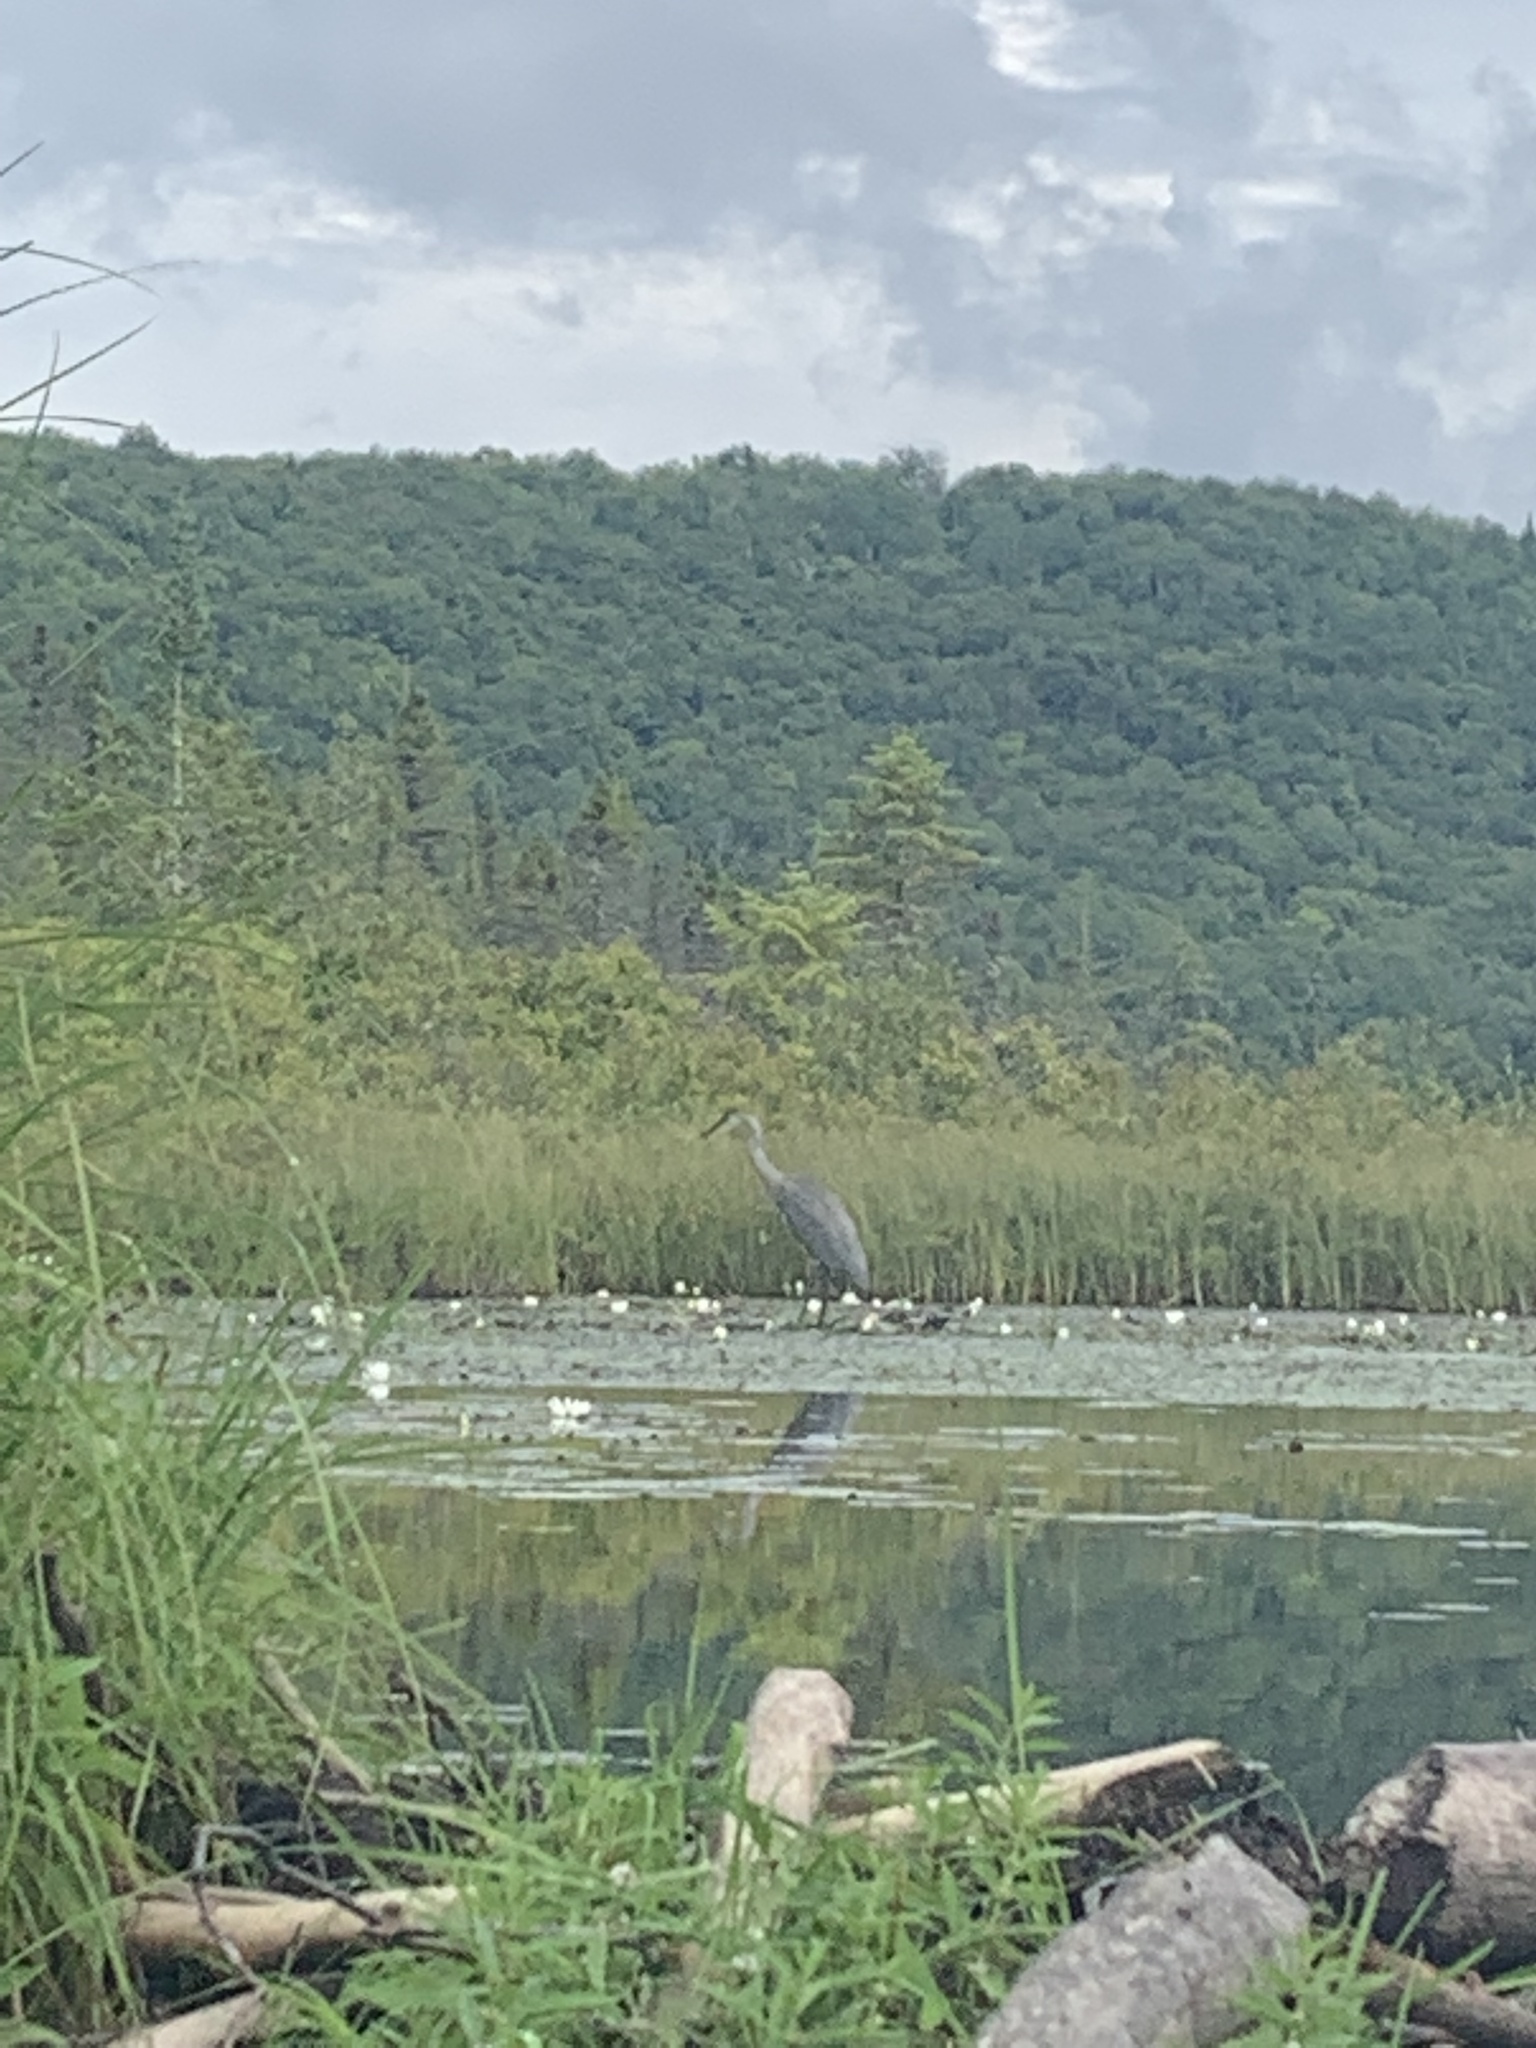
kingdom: Animalia
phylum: Chordata
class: Aves
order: Pelecaniformes
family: Ardeidae
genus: Ardea
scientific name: Ardea herodias
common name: Great blue heron
